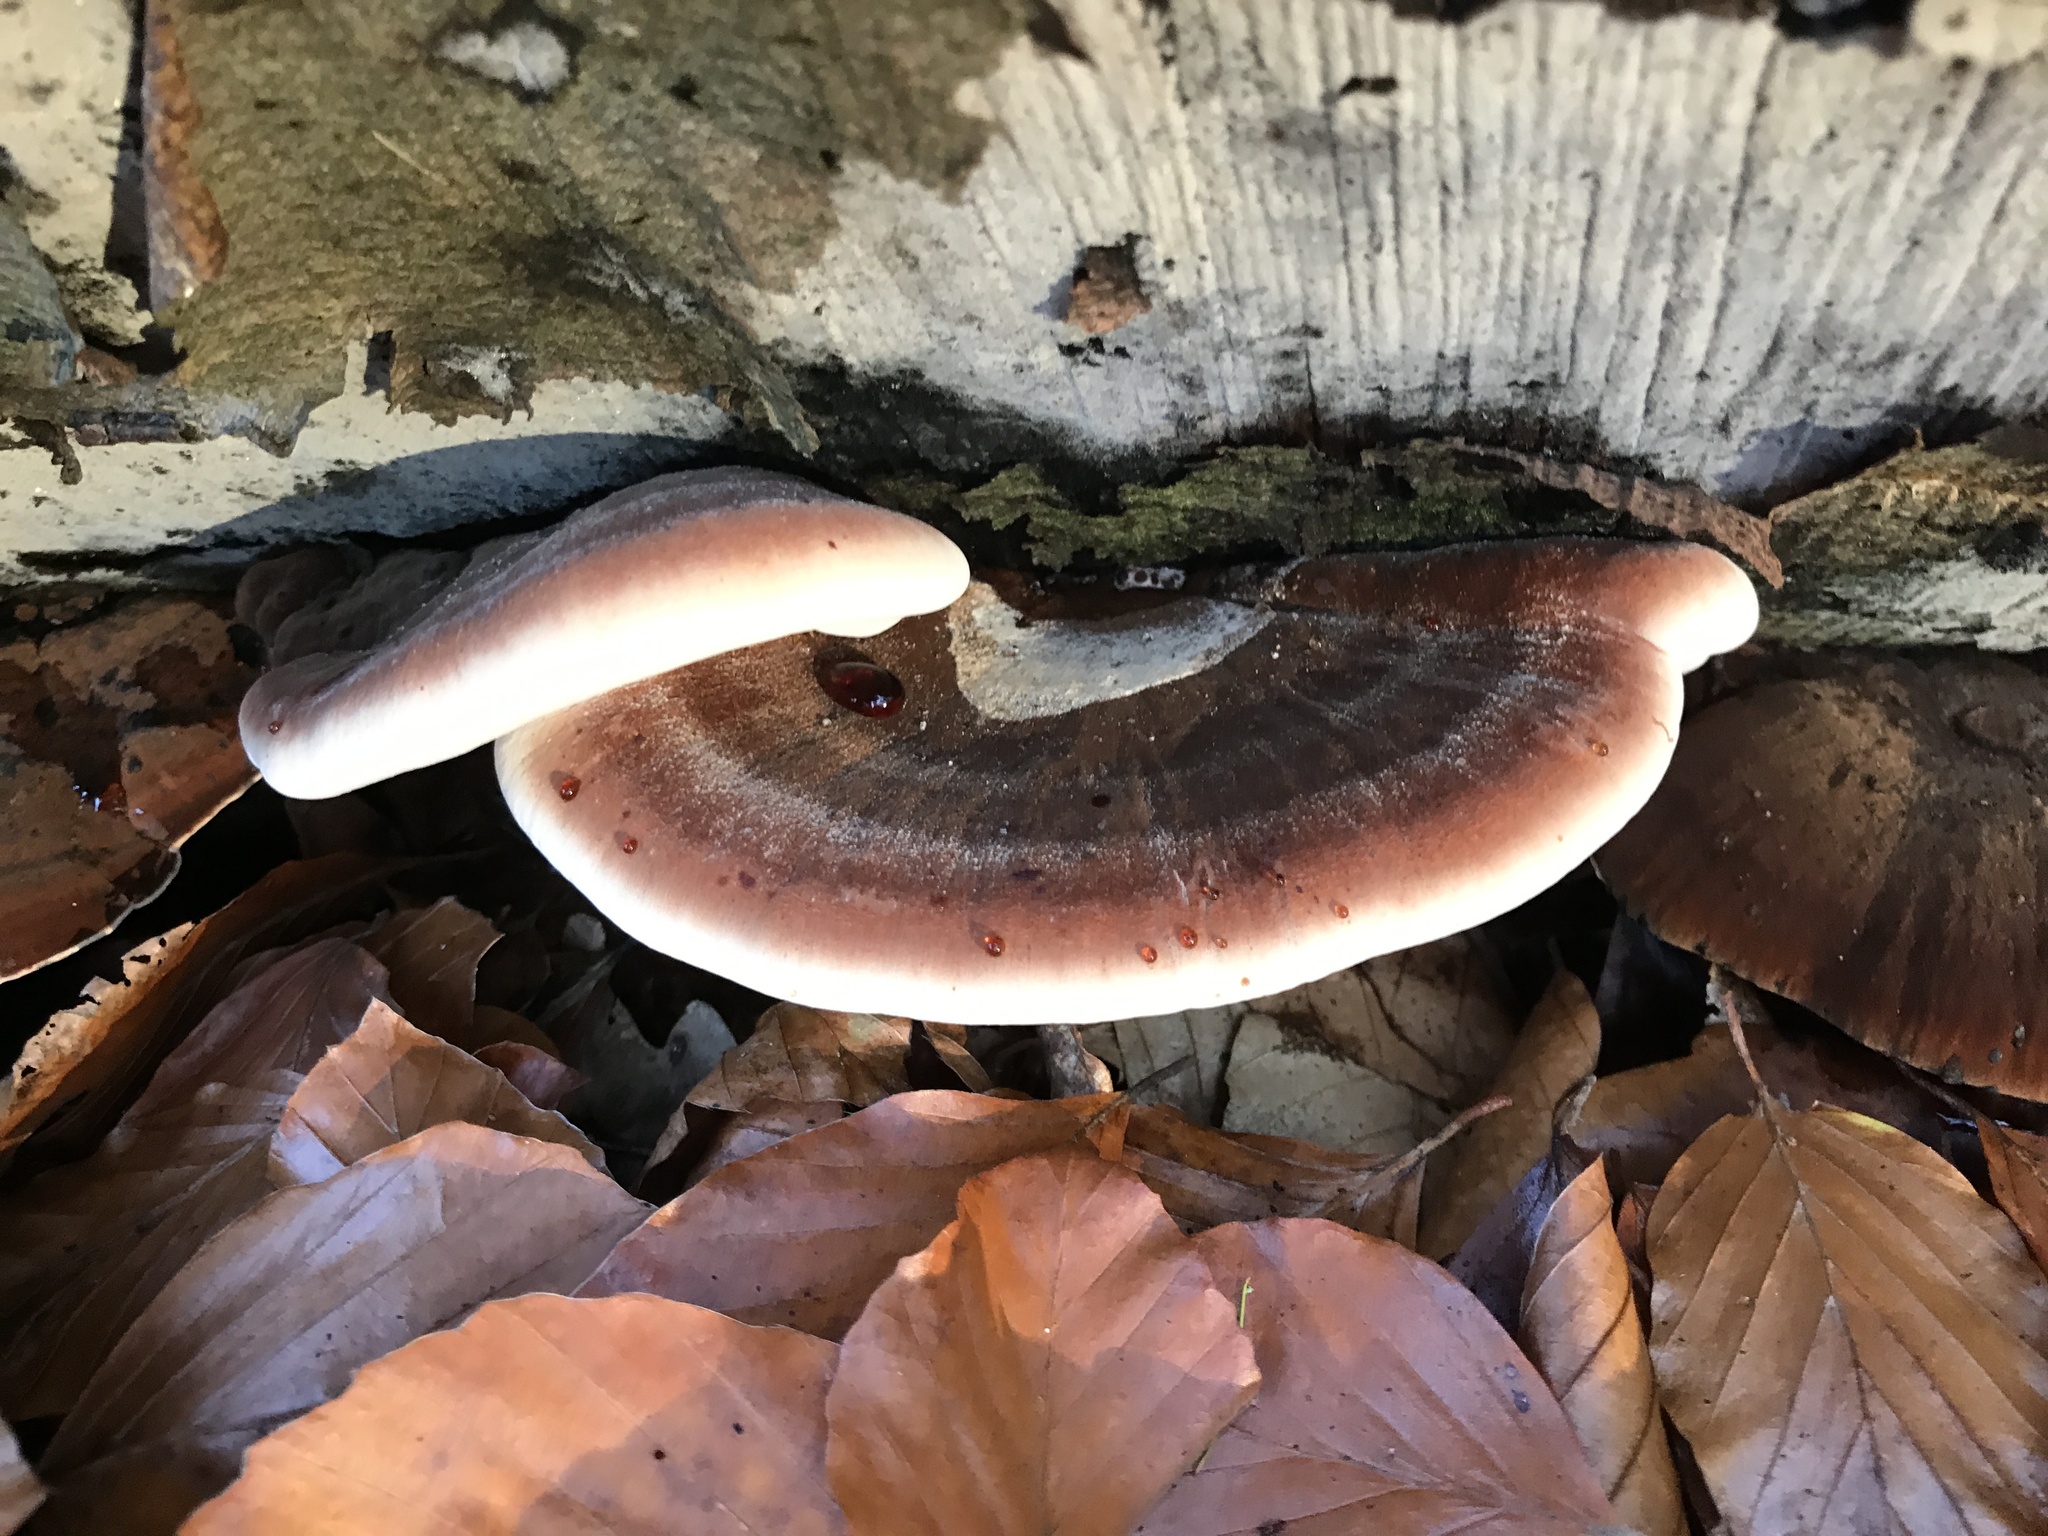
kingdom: Fungi
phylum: Basidiomycota
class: Agaricomycetes
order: Polyporales
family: Ischnodermataceae
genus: Ischnoderma
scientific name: Ischnoderma resinosum
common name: Resinous polypore
